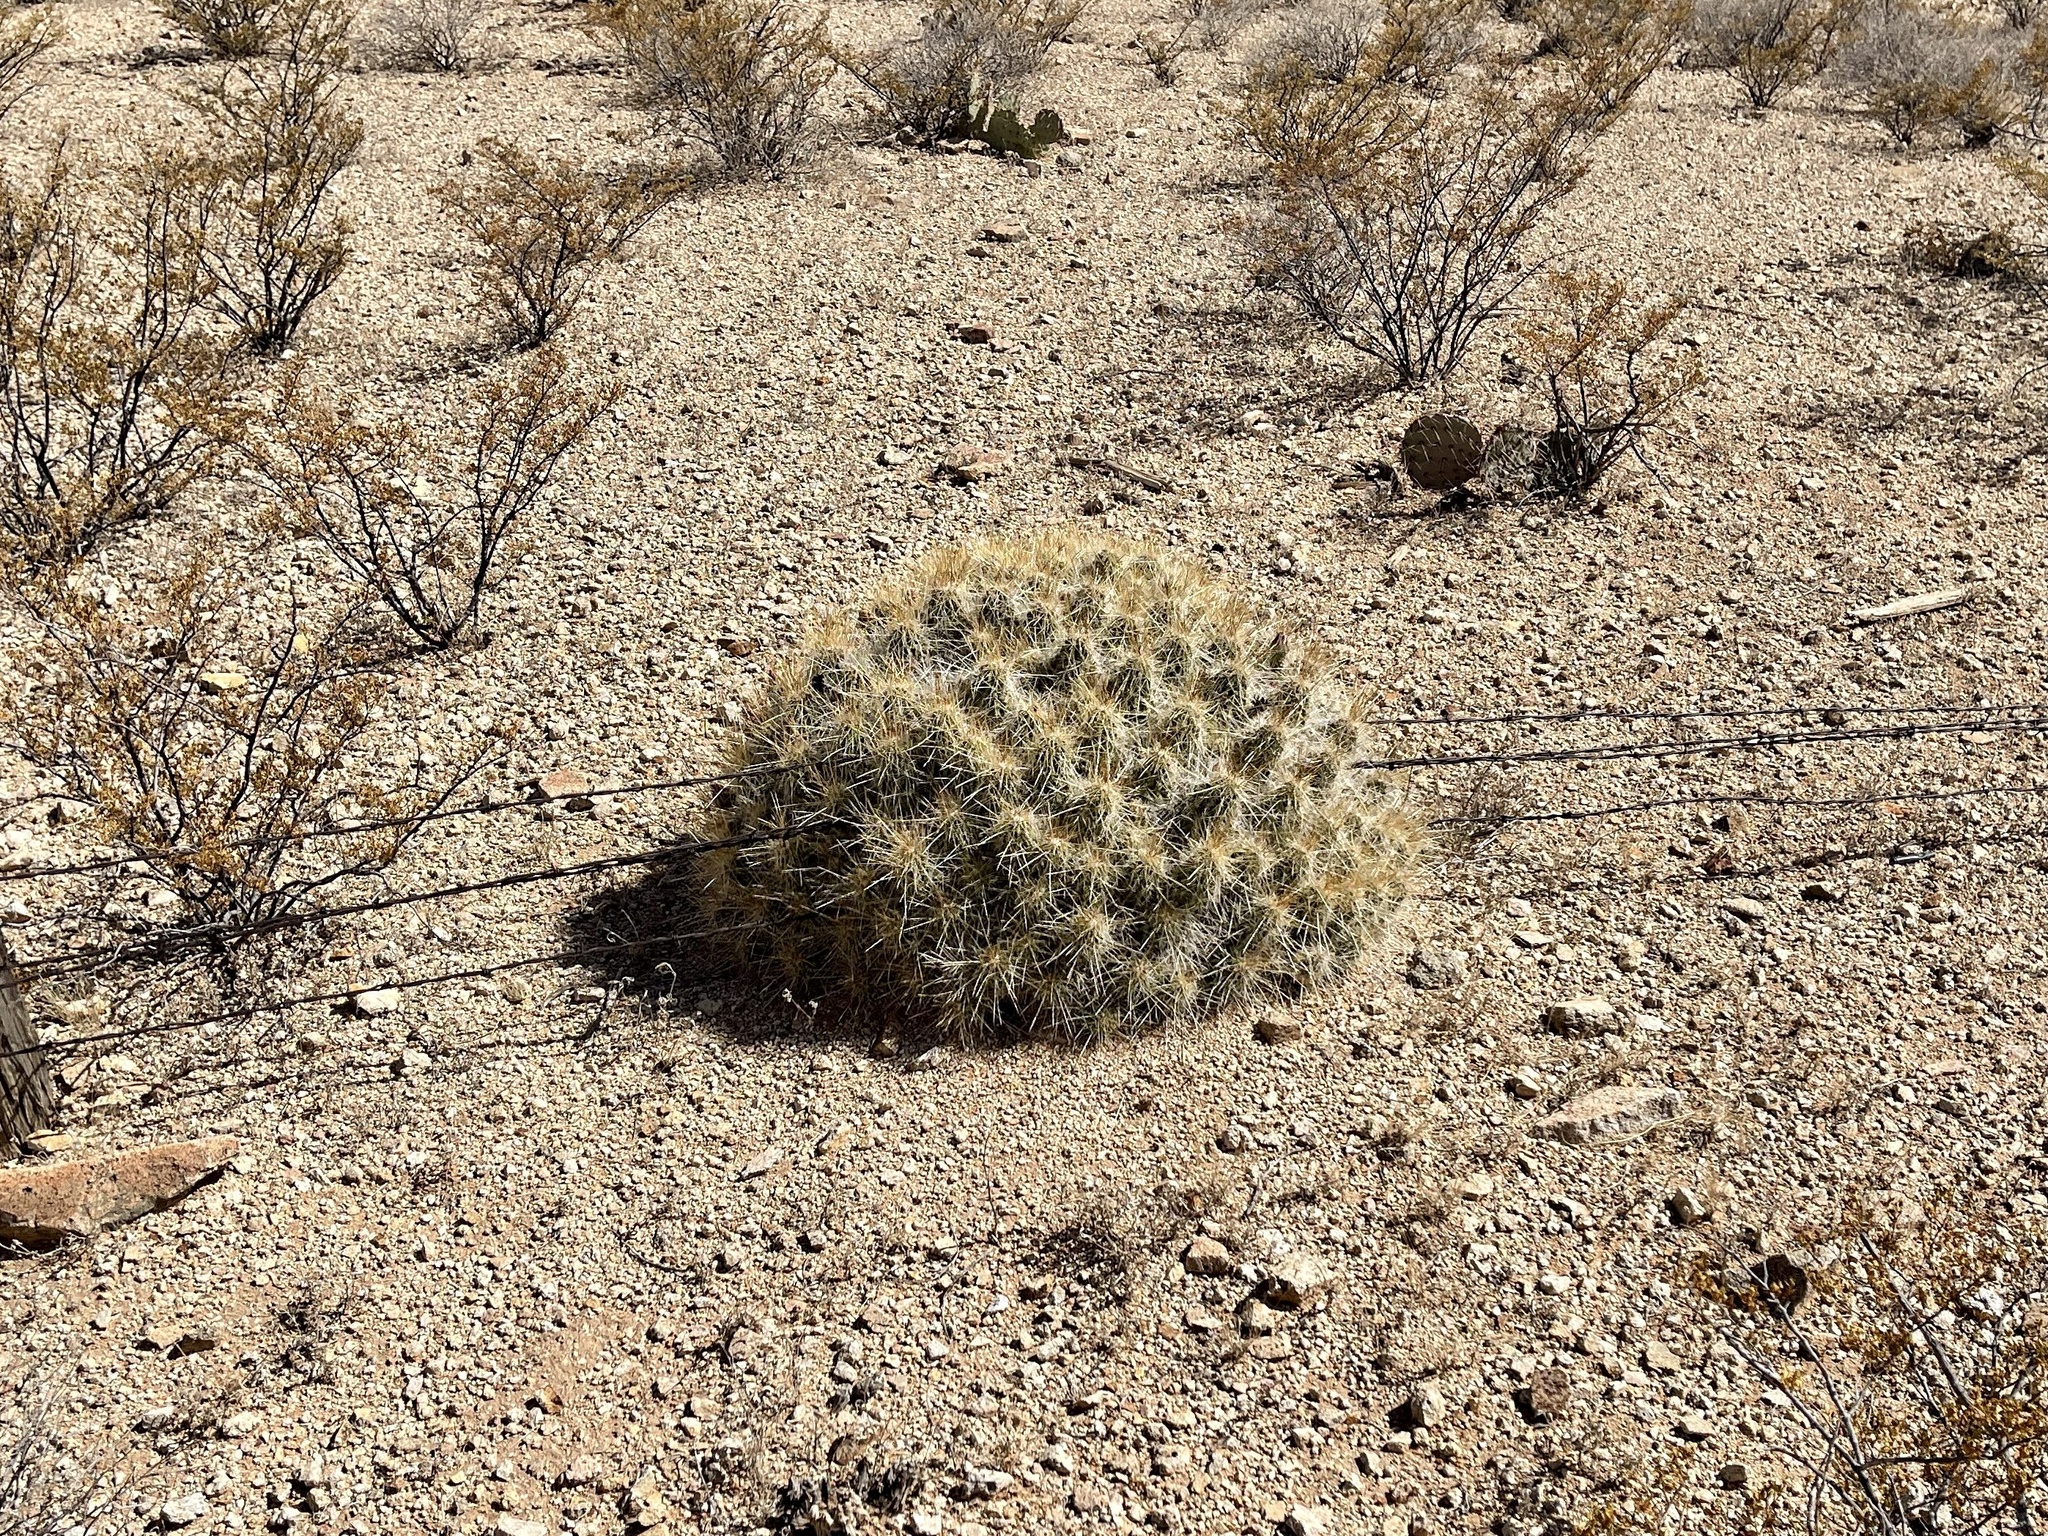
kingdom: Plantae
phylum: Tracheophyta
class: Magnoliopsida
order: Caryophyllales
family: Cactaceae
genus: Echinocereus
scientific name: Echinocereus stramineus
